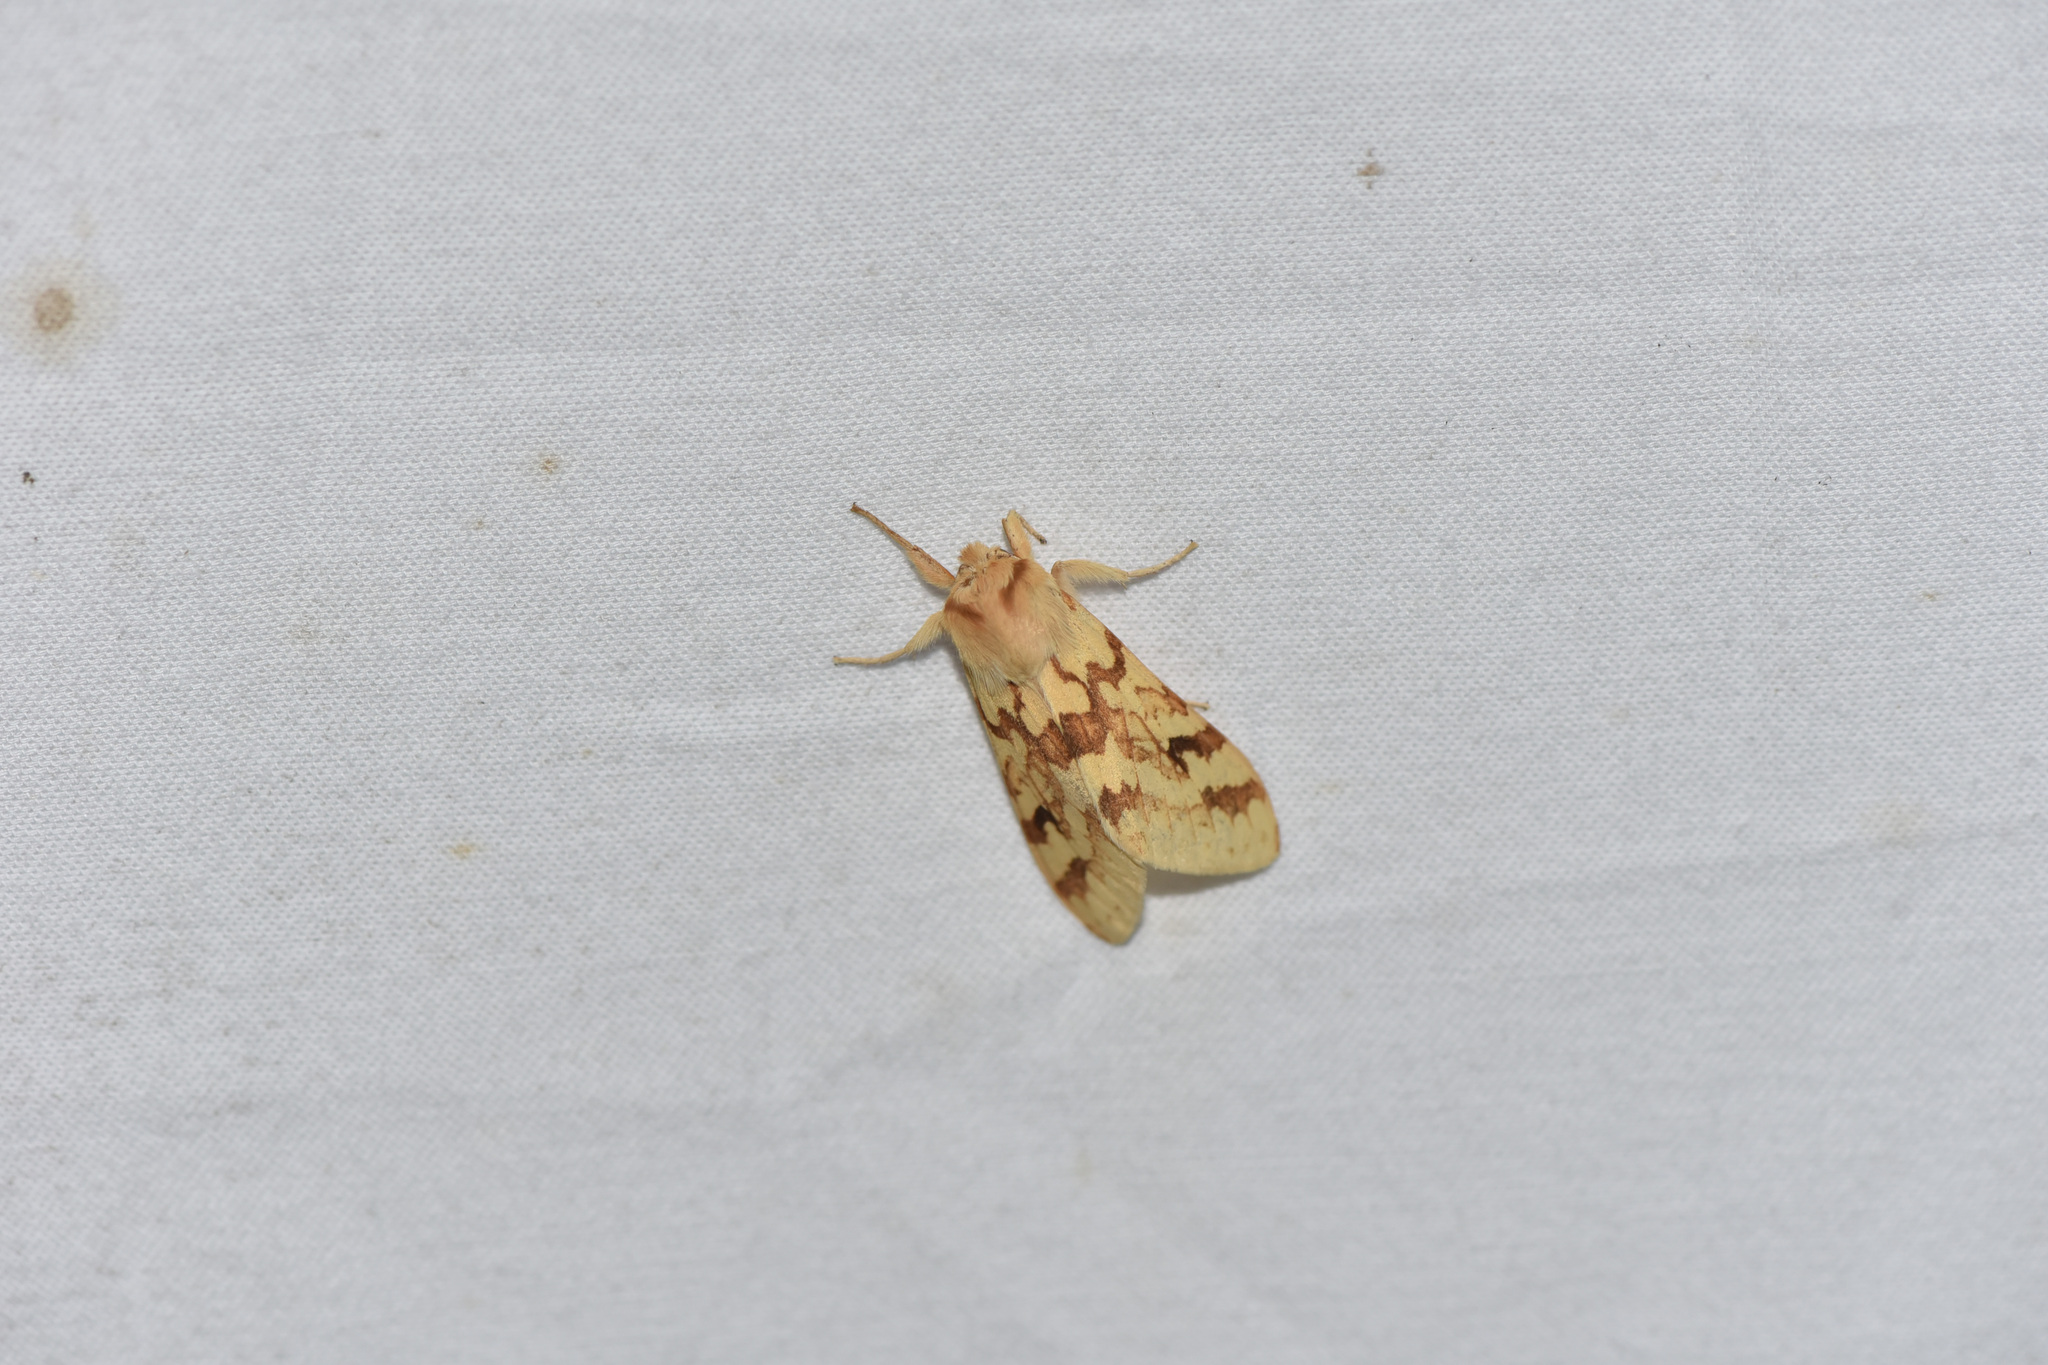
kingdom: Animalia
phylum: Arthropoda
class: Insecta
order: Lepidoptera
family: Erebidae
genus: Lophocampa
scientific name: Lophocampa maculata
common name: Spotted tussock moth
